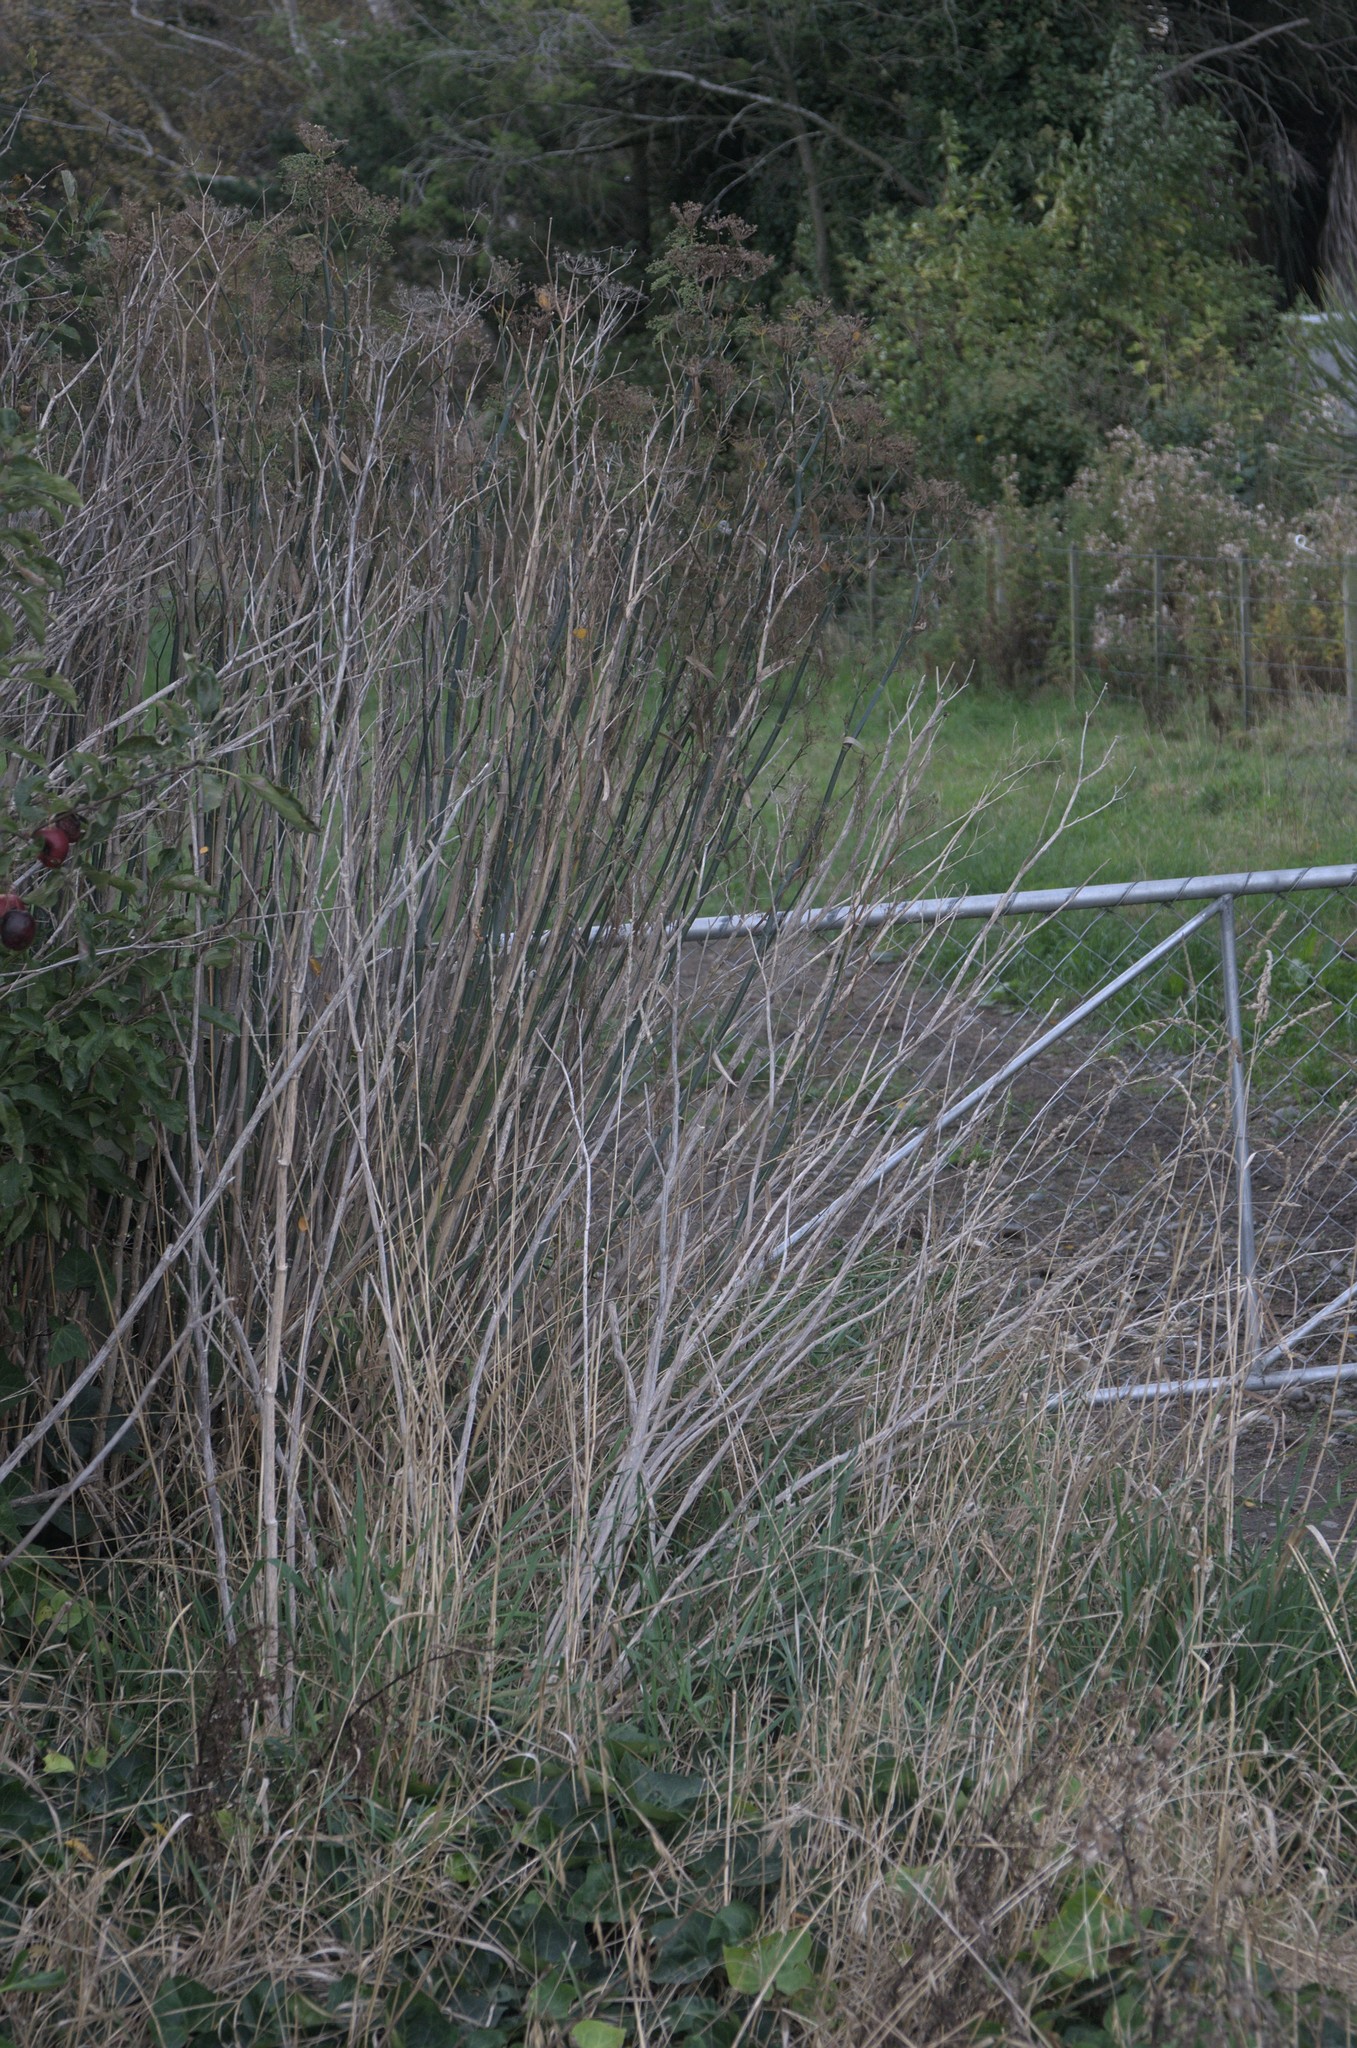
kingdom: Plantae
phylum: Tracheophyta
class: Magnoliopsida
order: Apiales
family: Apiaceae
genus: Foeniculum
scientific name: Foeniculum vulgare
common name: Fennel
